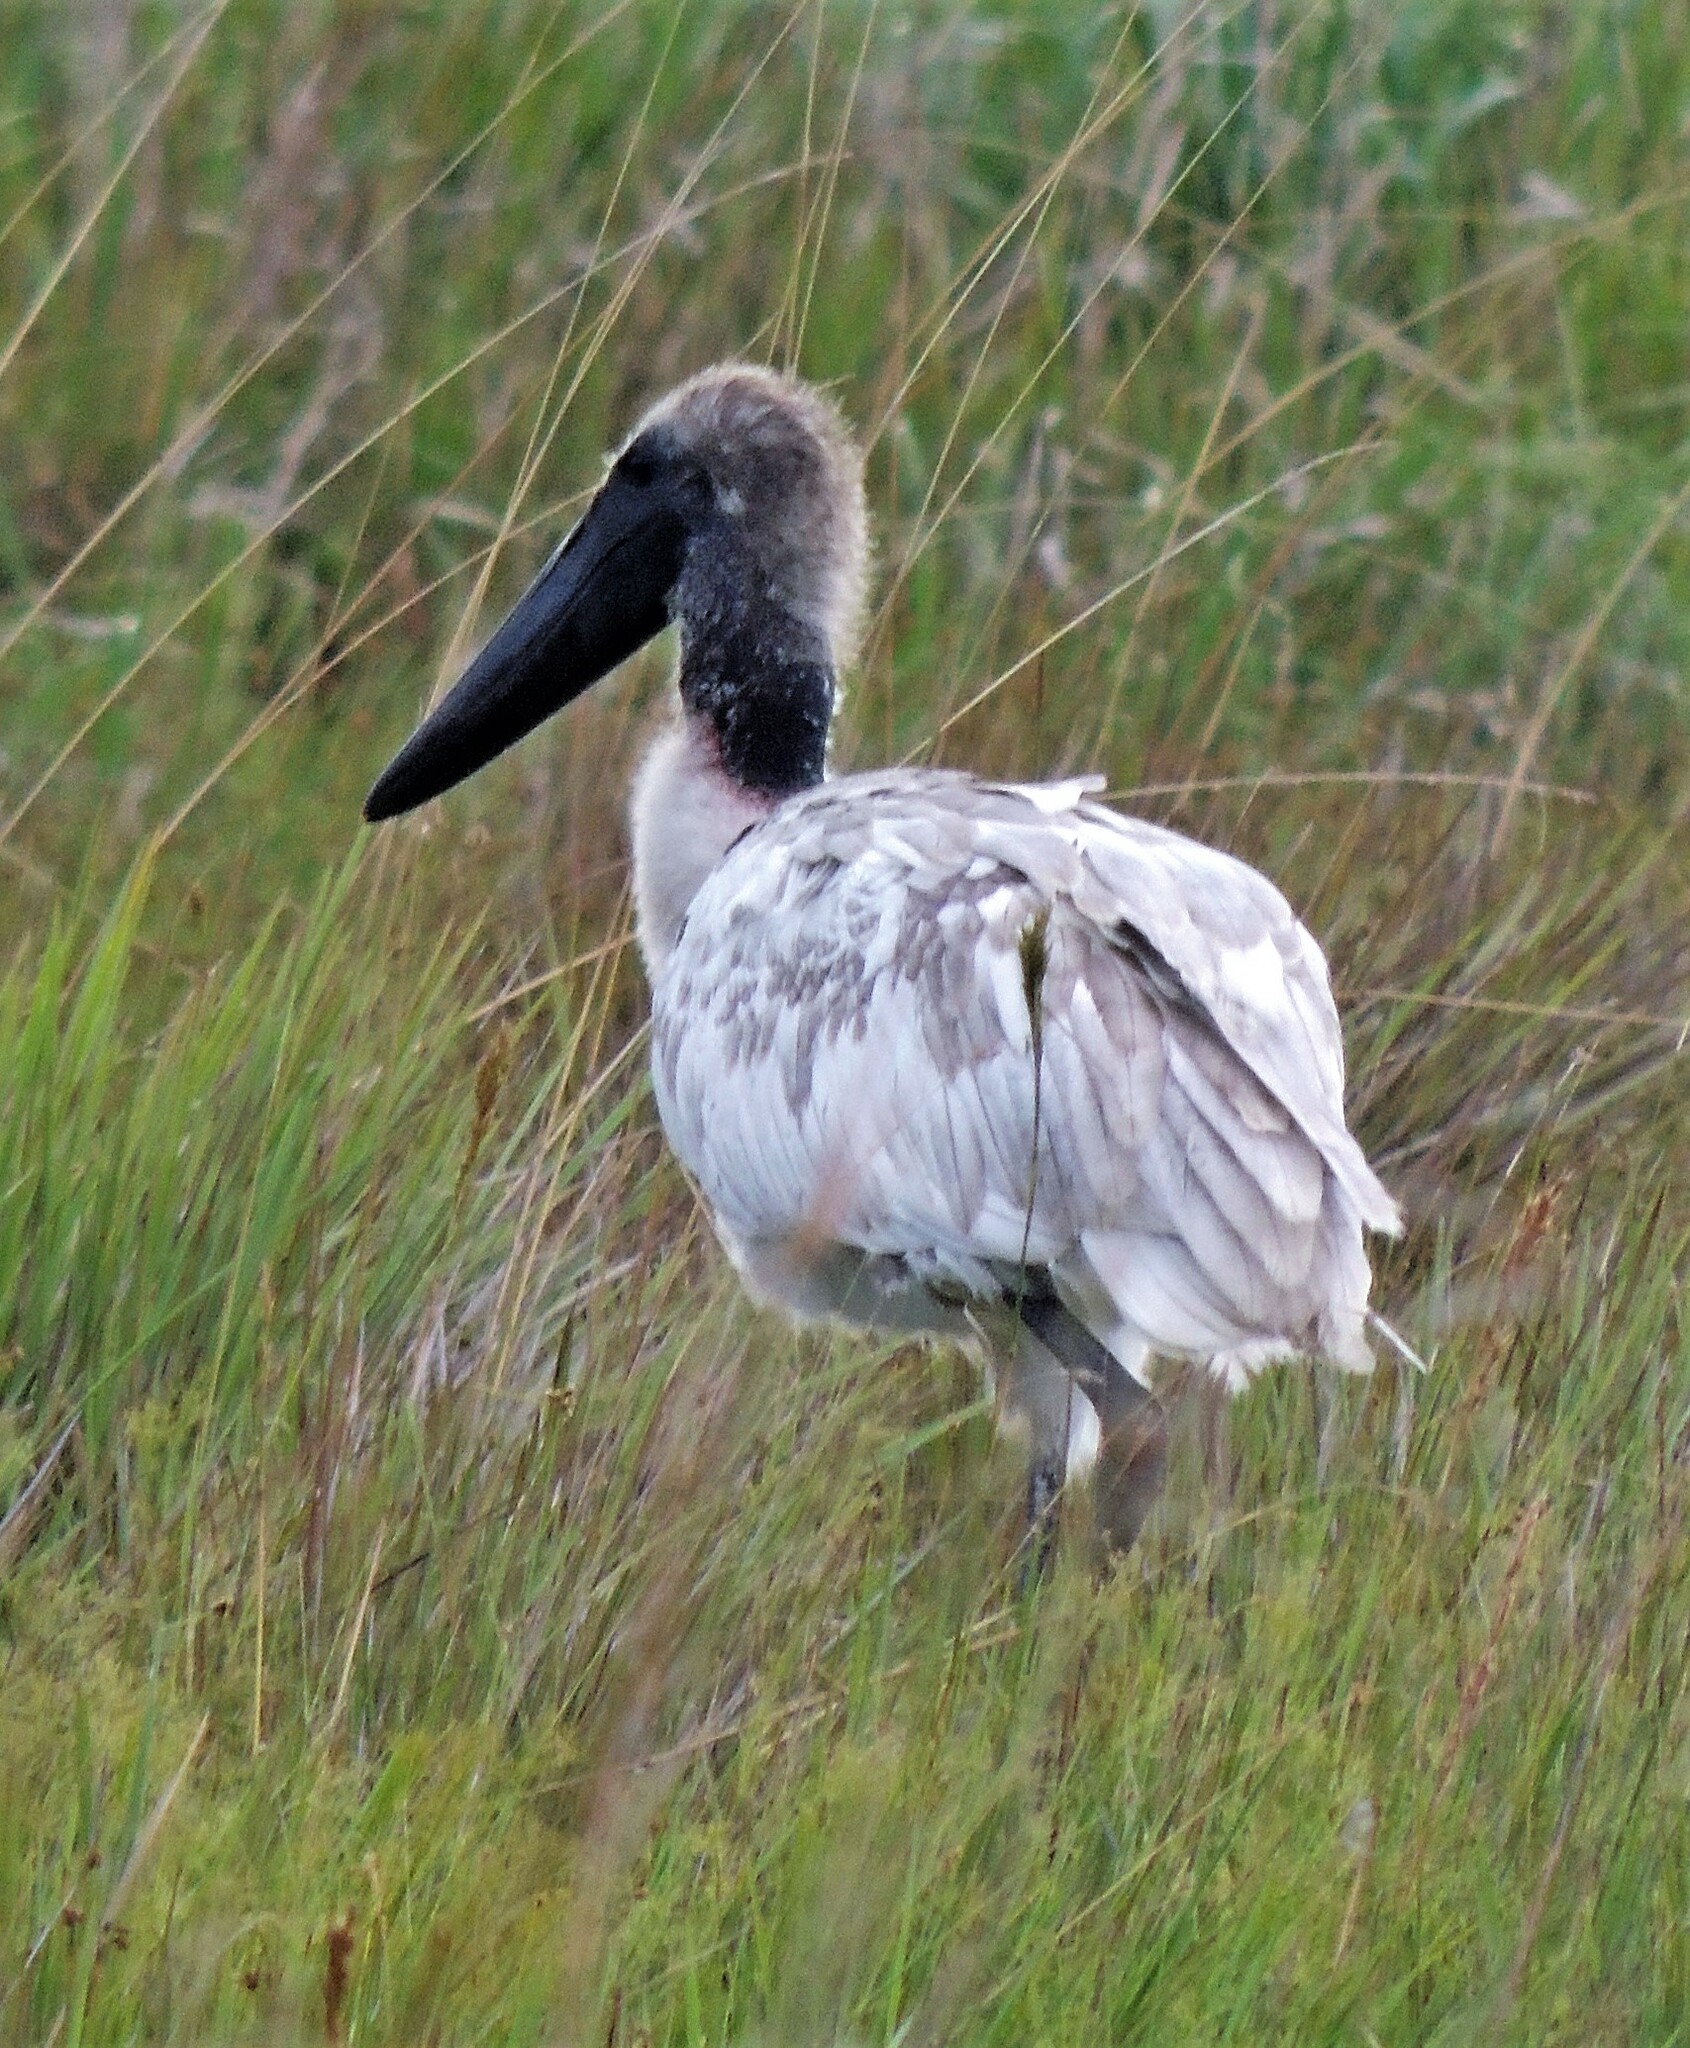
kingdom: Animalia
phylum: Chordata
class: Aves
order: Ciconiiformes
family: Ciconiidae
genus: Jabiru
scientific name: Jabiru mycteria
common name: Jabiru
